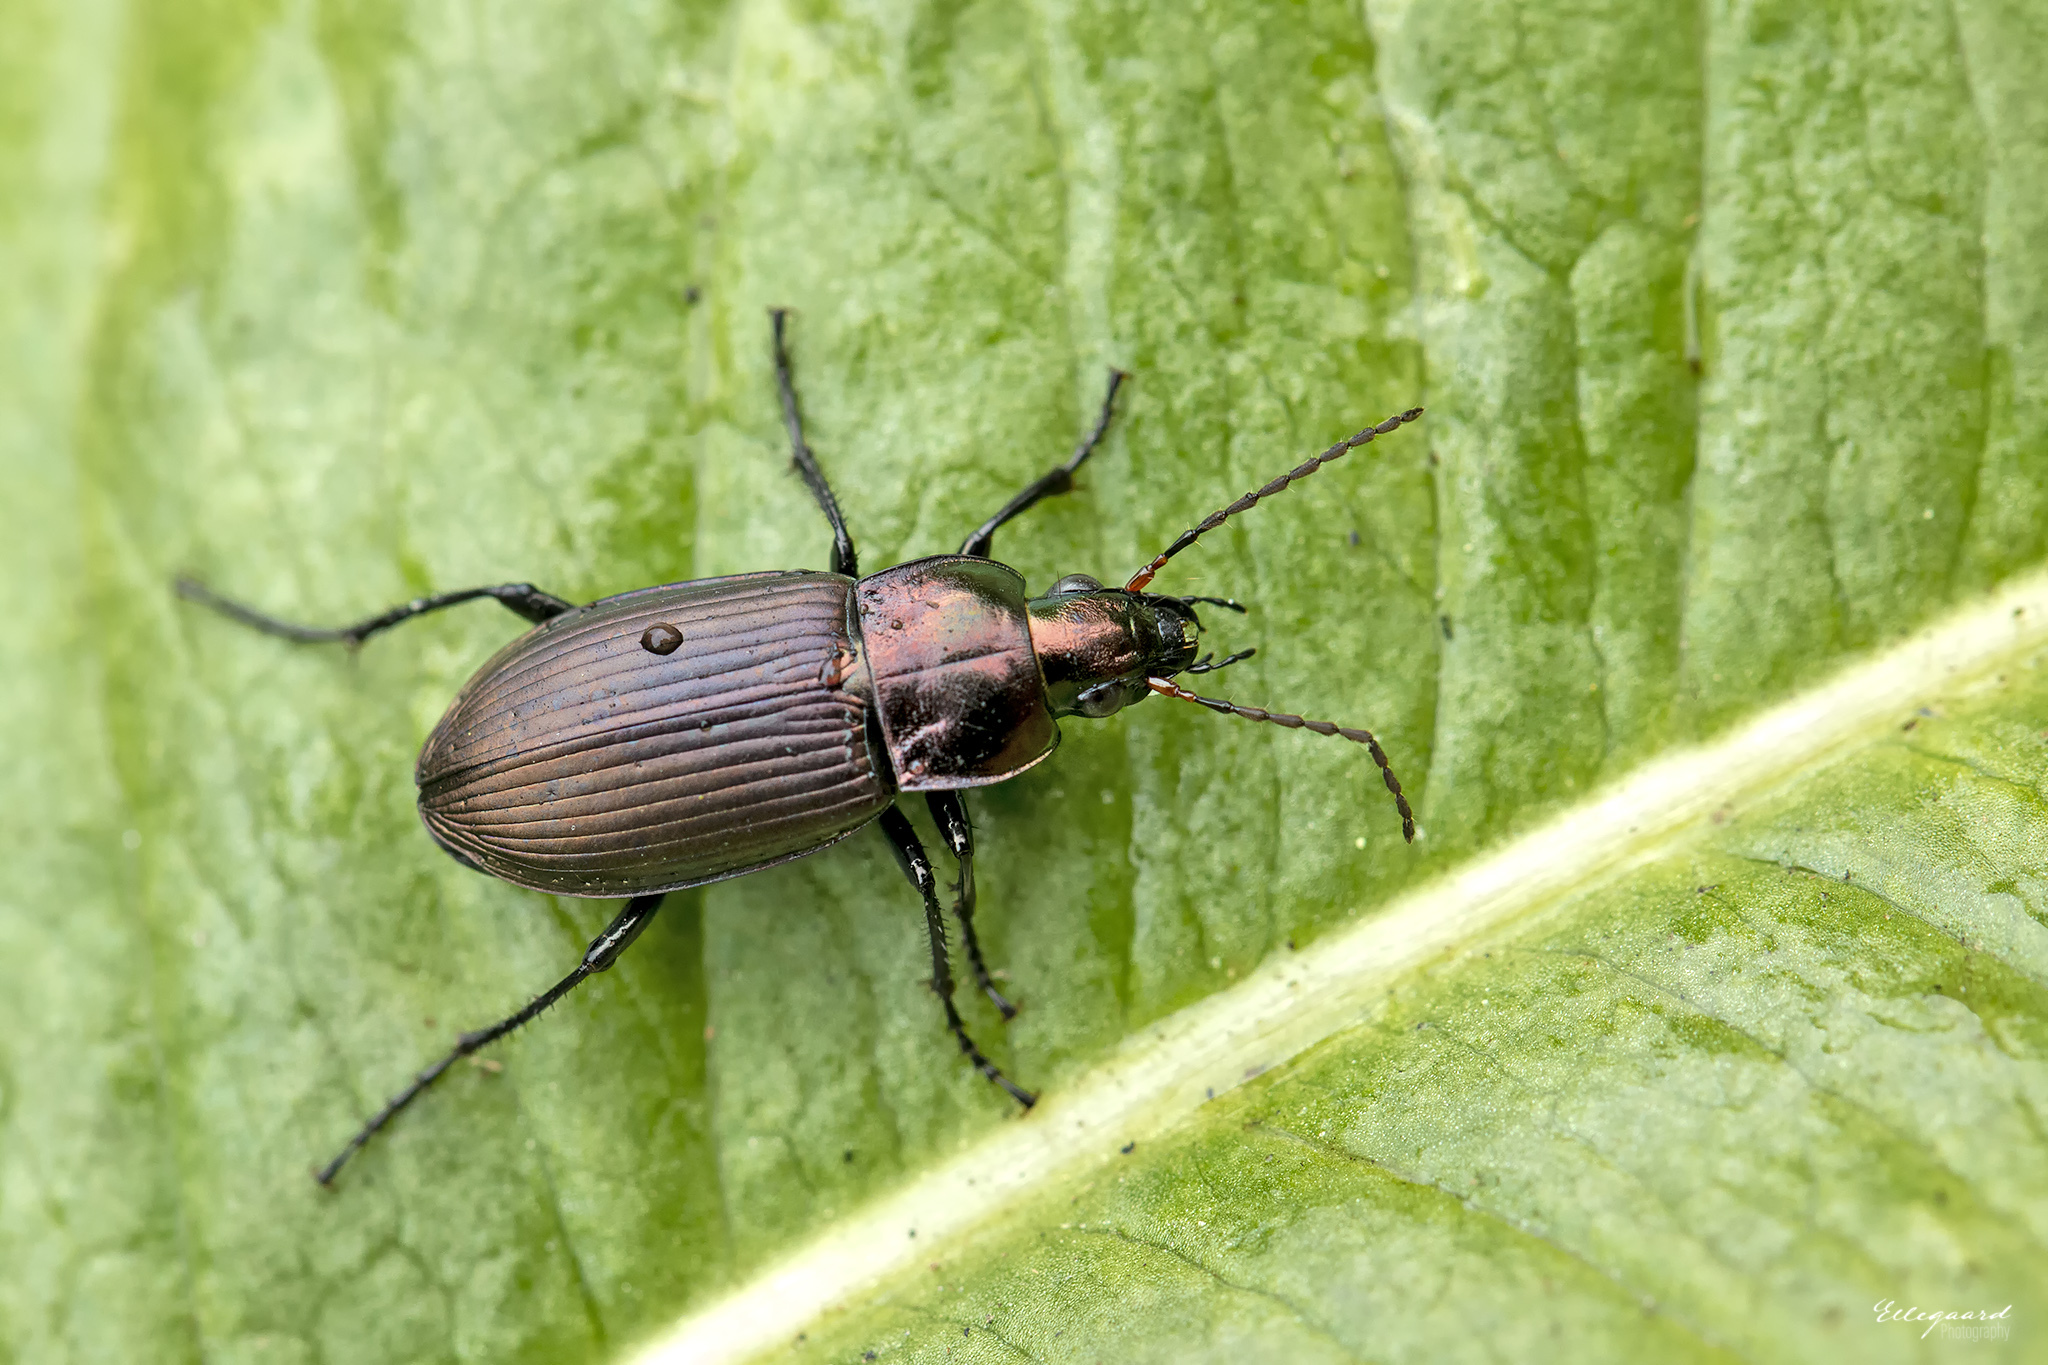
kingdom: Animalia
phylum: Arthropoda
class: Insecta
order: Coleoptera
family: Carabidae
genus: Poecilus
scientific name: Poecilus cupreus
